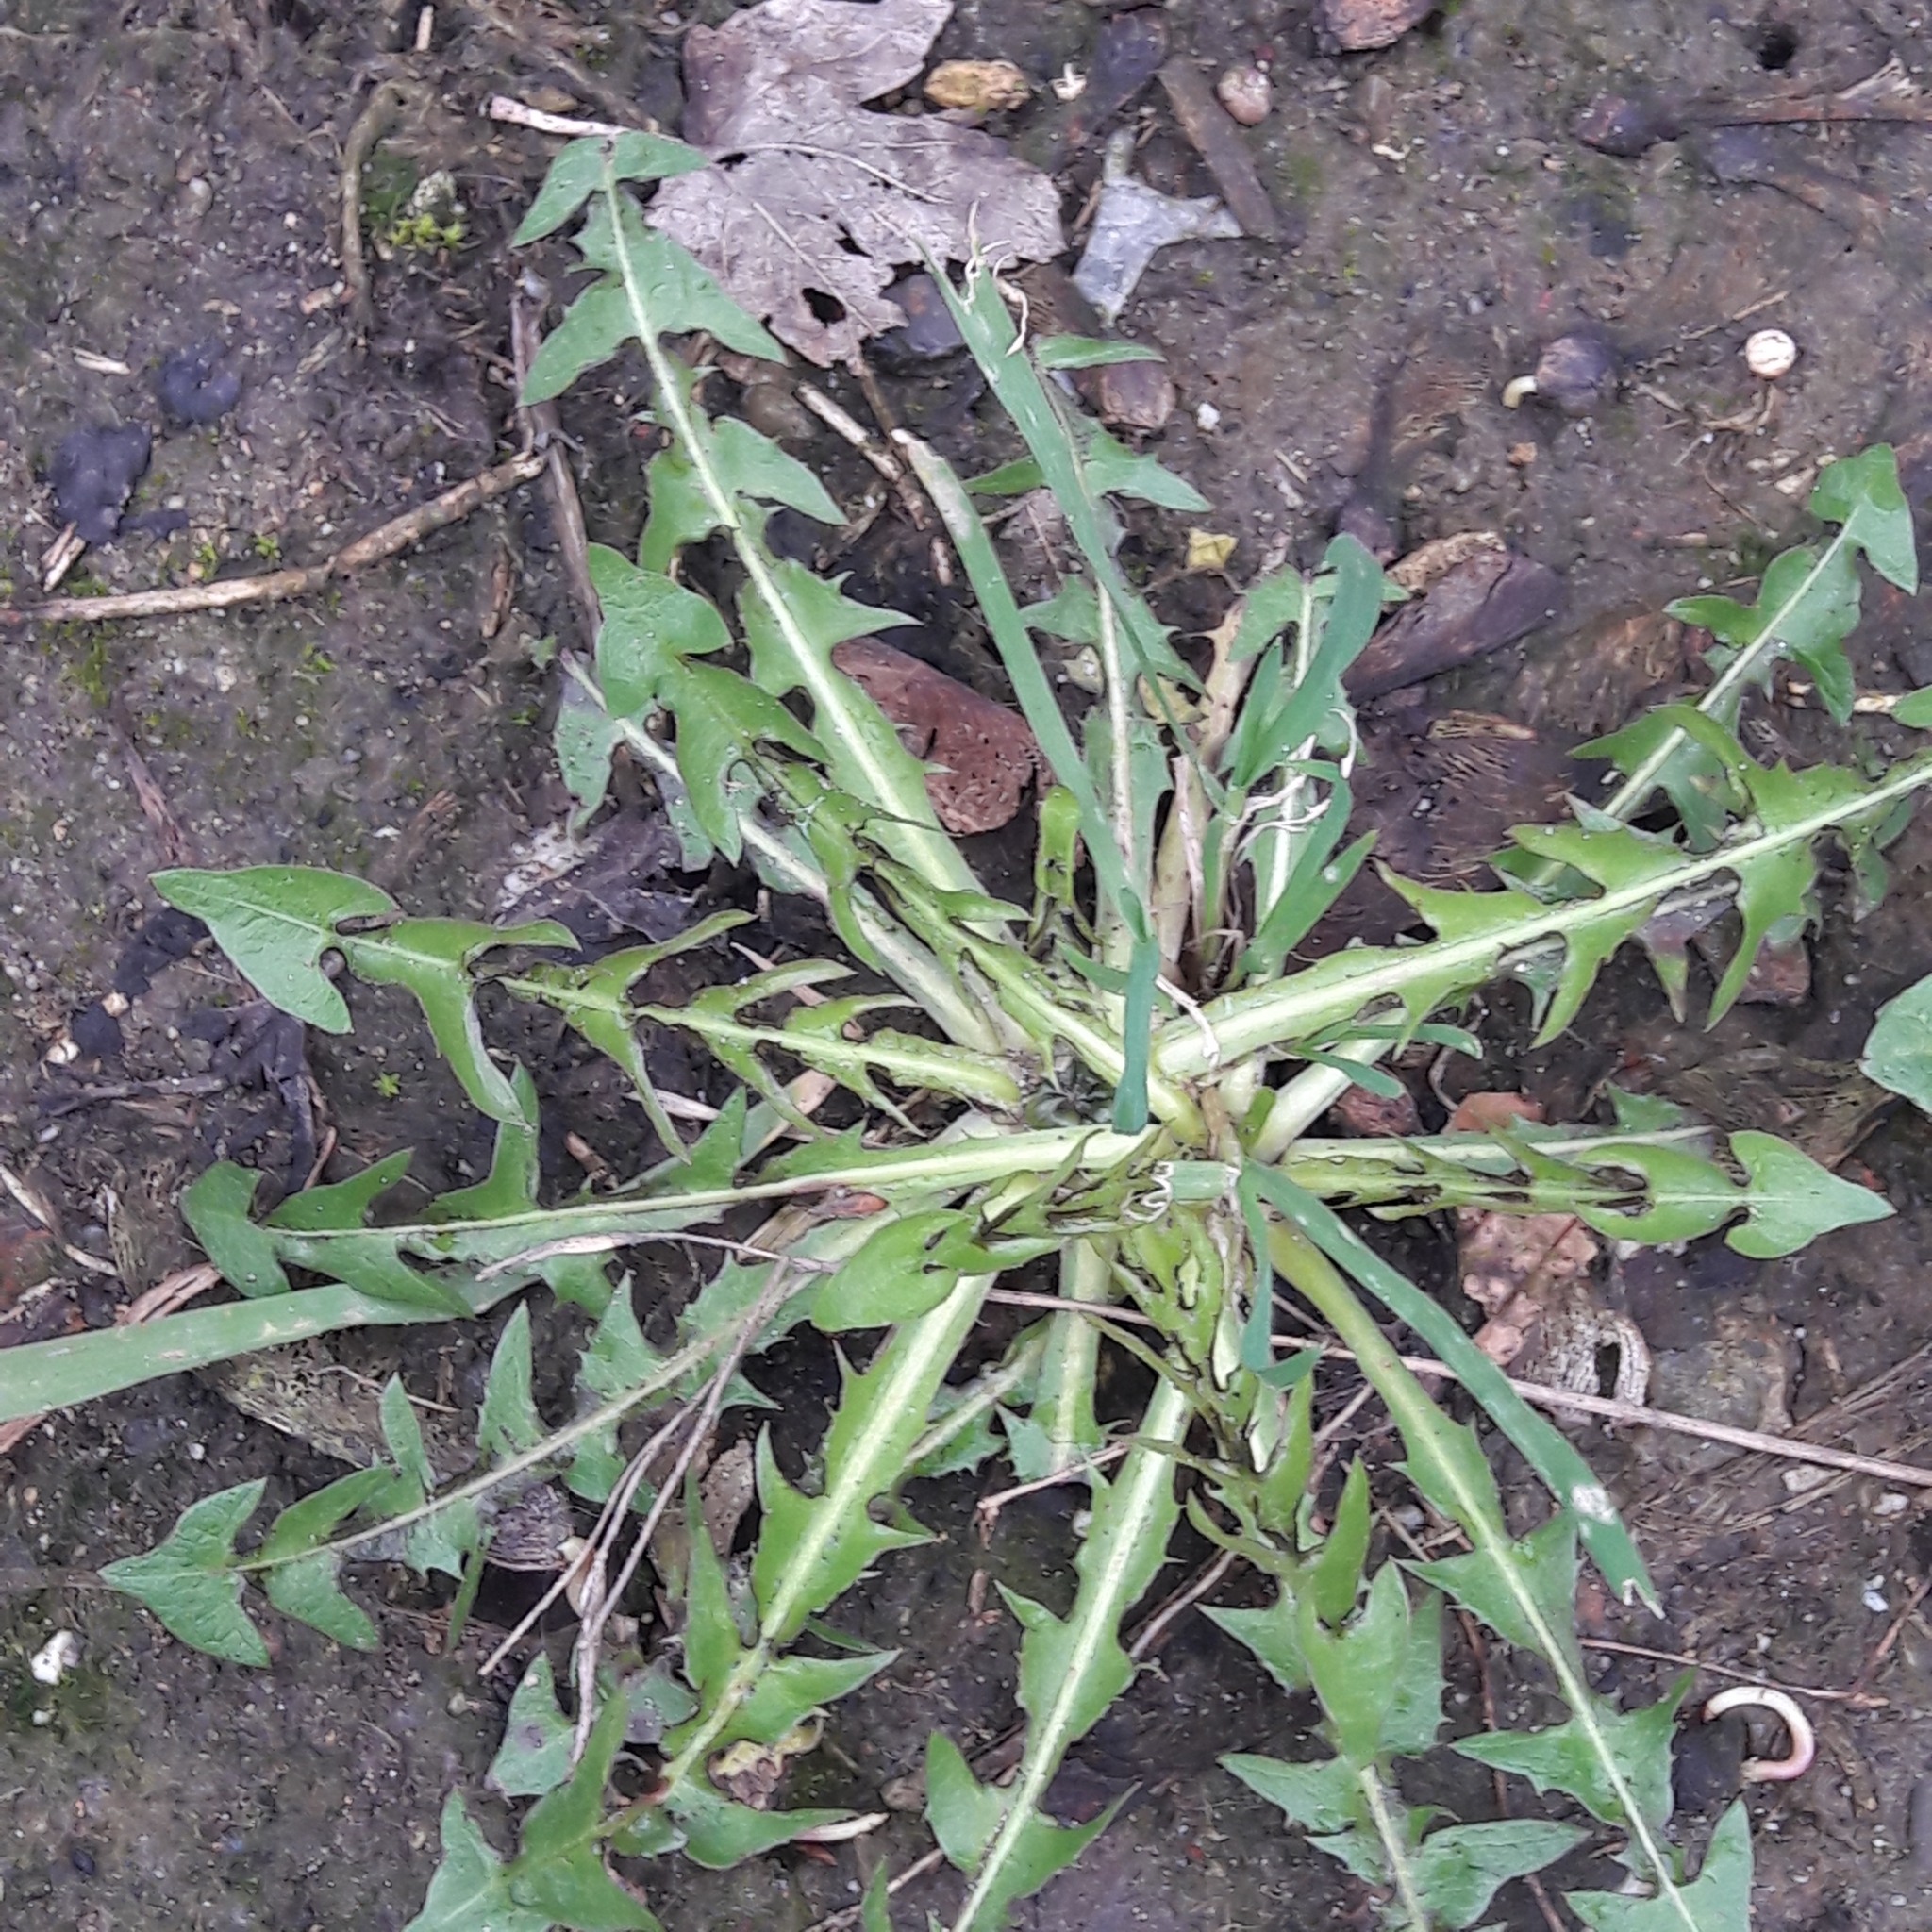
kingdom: Plantae
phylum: Tracheophyta
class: Magnoliopsida
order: Asterales
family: Asteraceae
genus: Taraxacum
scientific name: Taraxacum officinale
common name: Common dandelion
